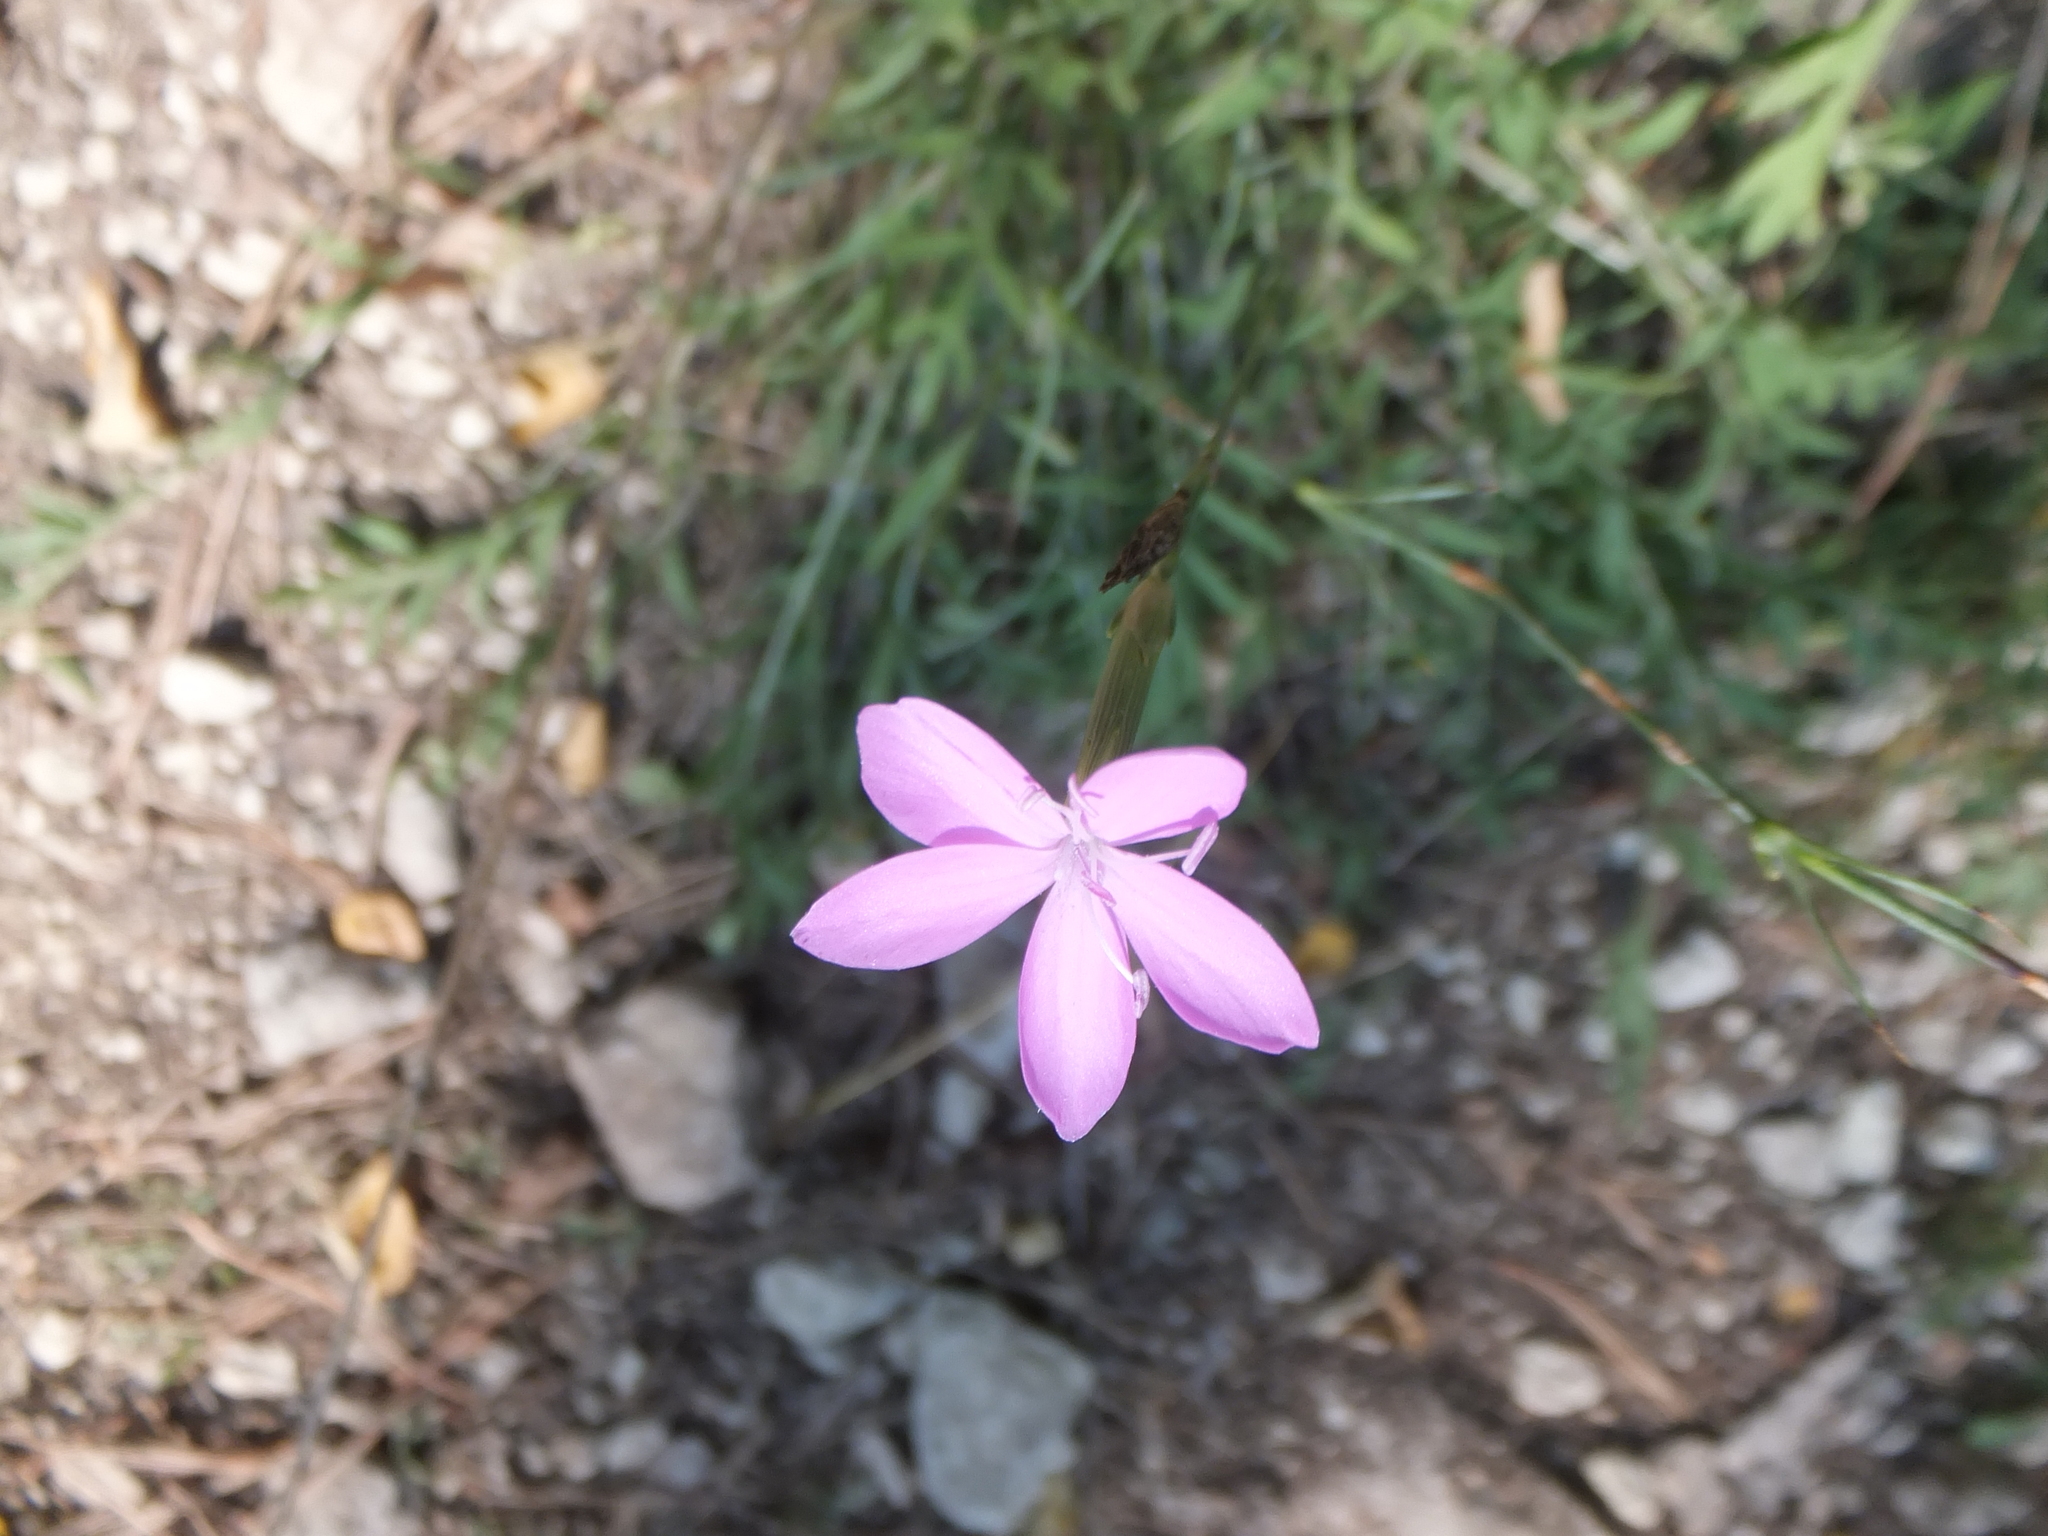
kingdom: Plantae
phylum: Tracheophyta
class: Magnoliopsida
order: Caryophyllales
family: Caryophyllaceae
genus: Dianthus
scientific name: Dianthus ciliatus
